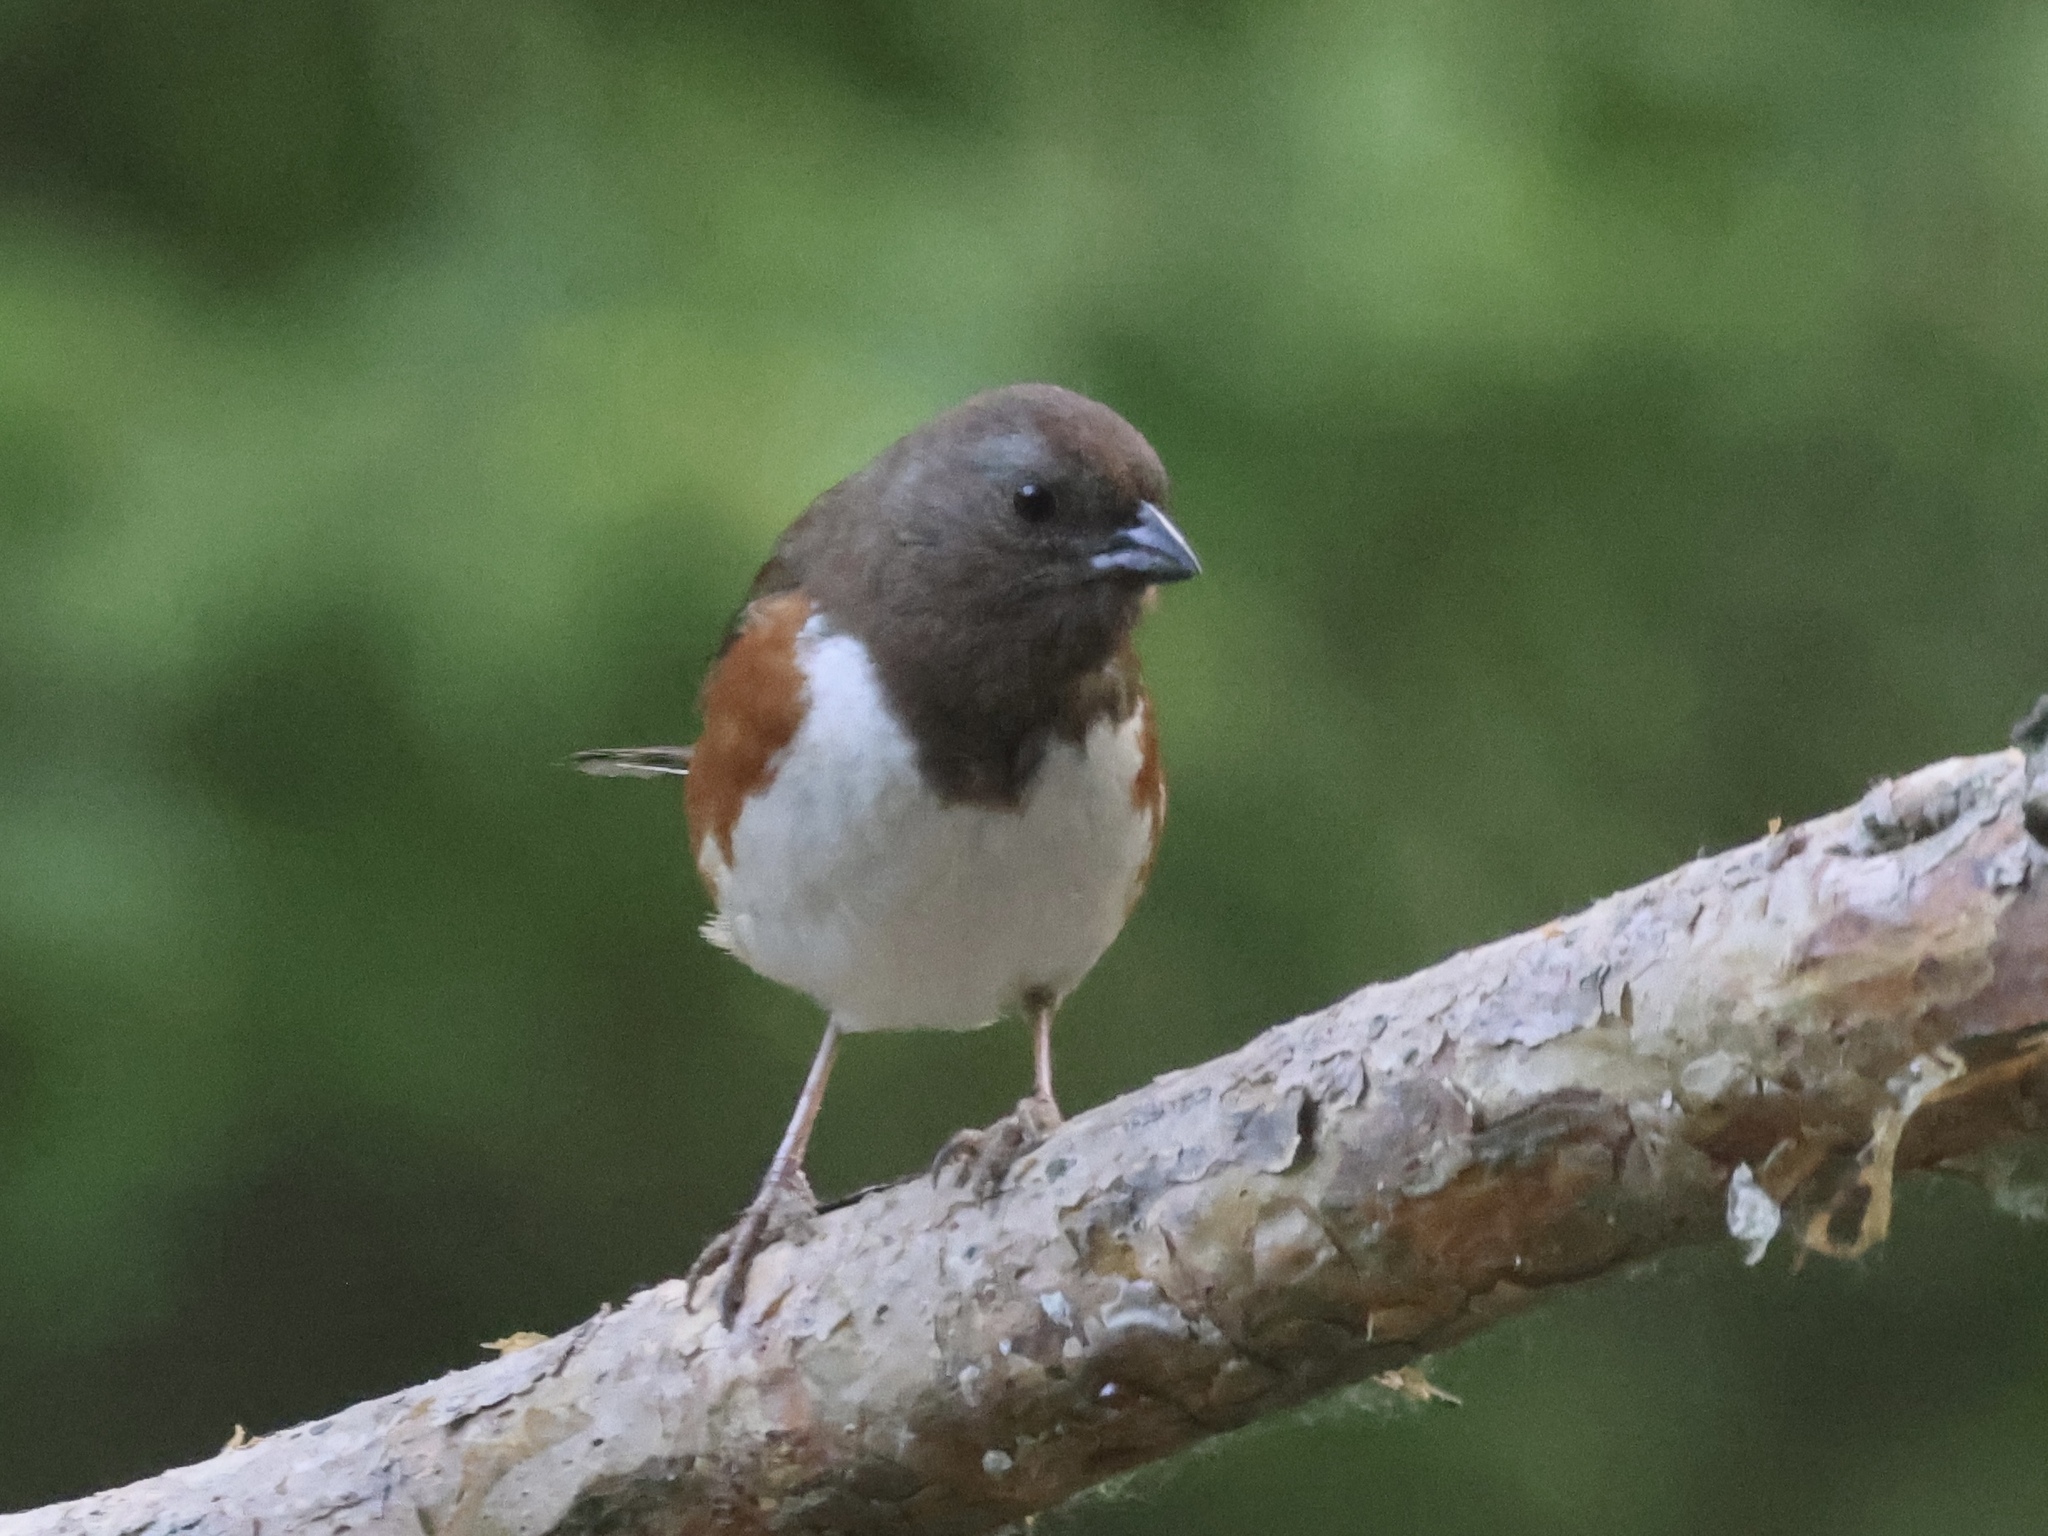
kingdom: Animalia
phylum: Chordata
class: Aves
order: Passeriformes
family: Passerellidae
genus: Pipilo
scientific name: Pipilo erythrophthalmus
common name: Eastern towhee
